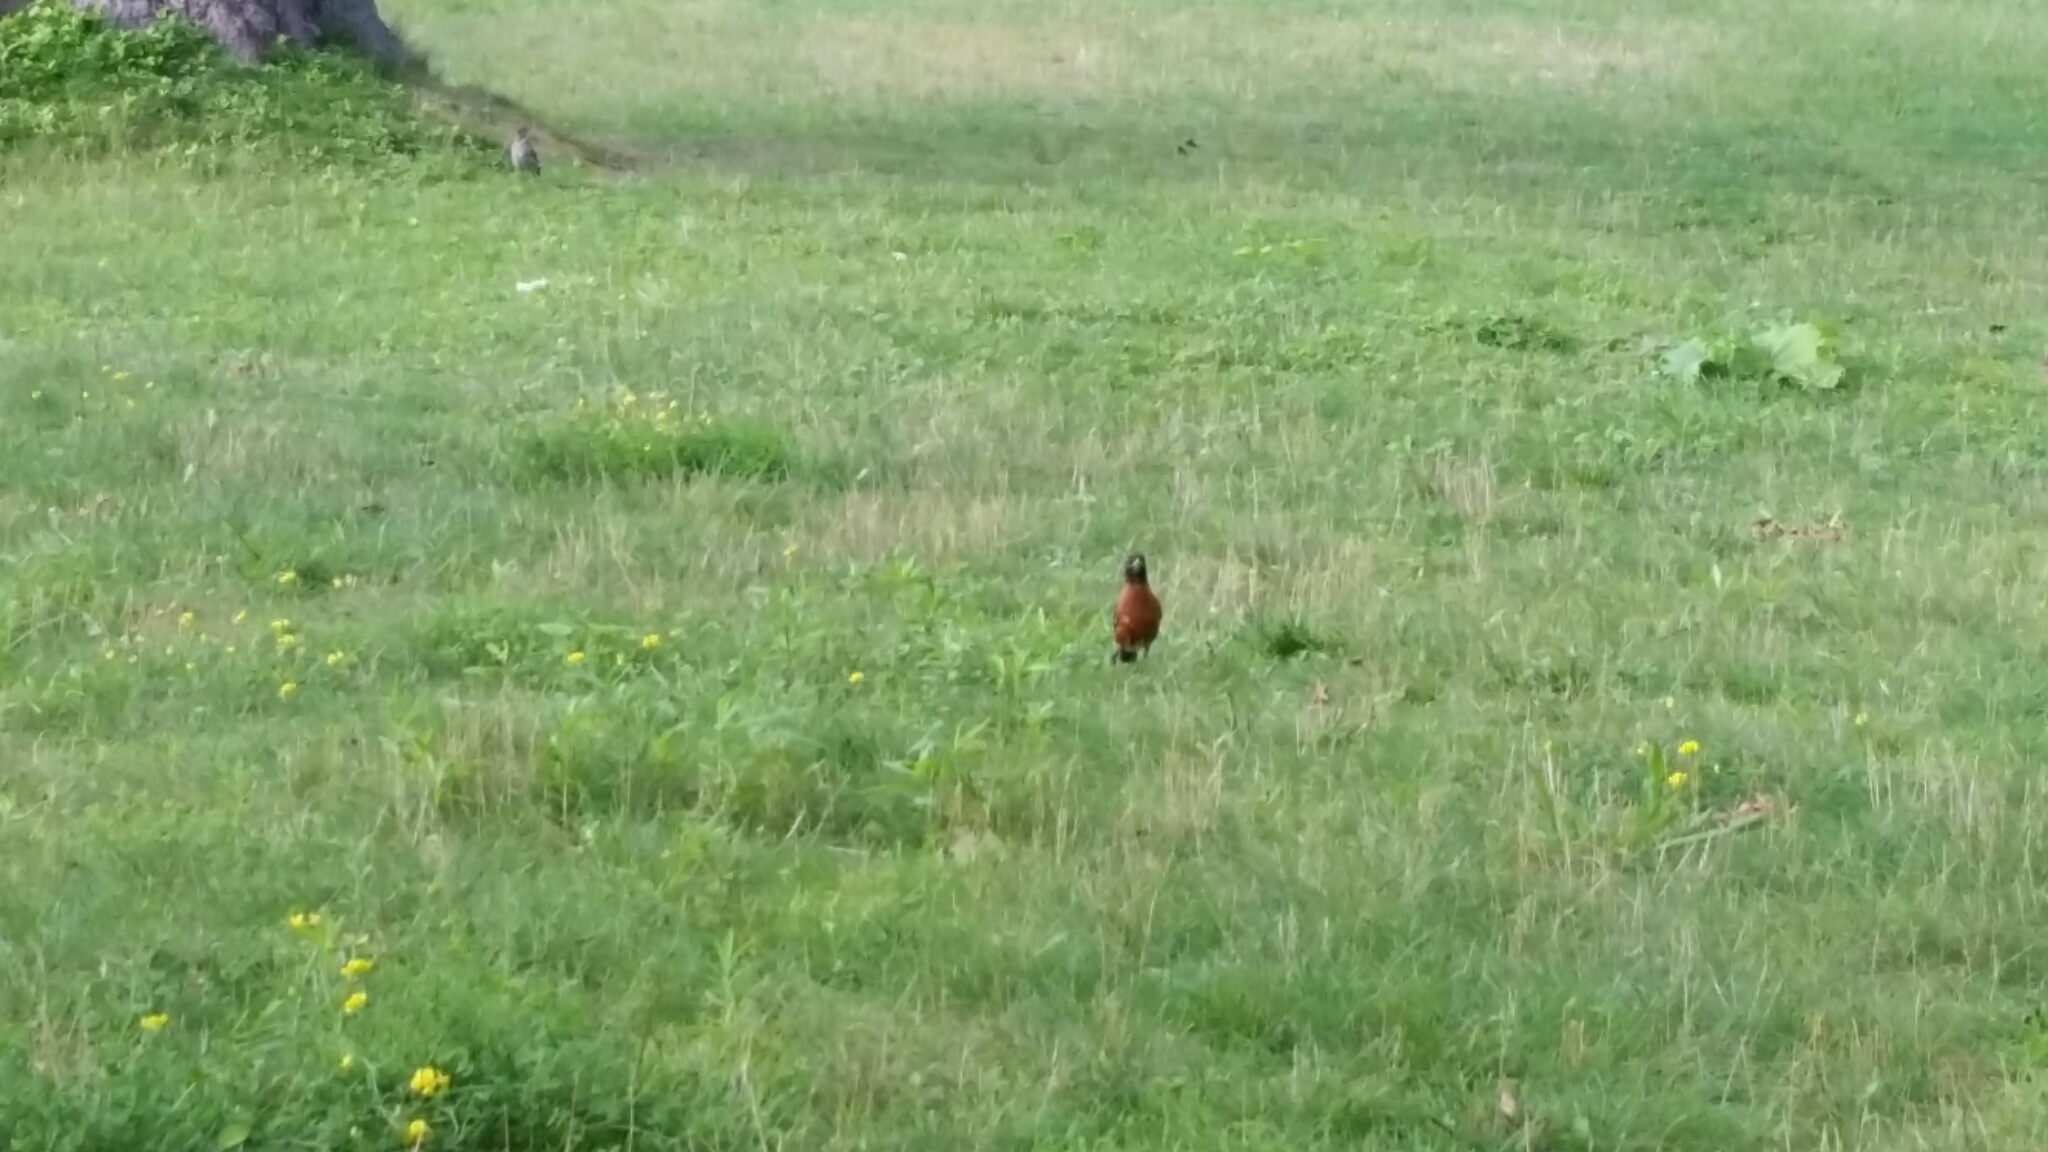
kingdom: Animalia
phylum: Chordata
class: Aves
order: Passeriformes
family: Turdidae
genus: Turdus
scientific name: Turdus migratorius
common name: American robin
